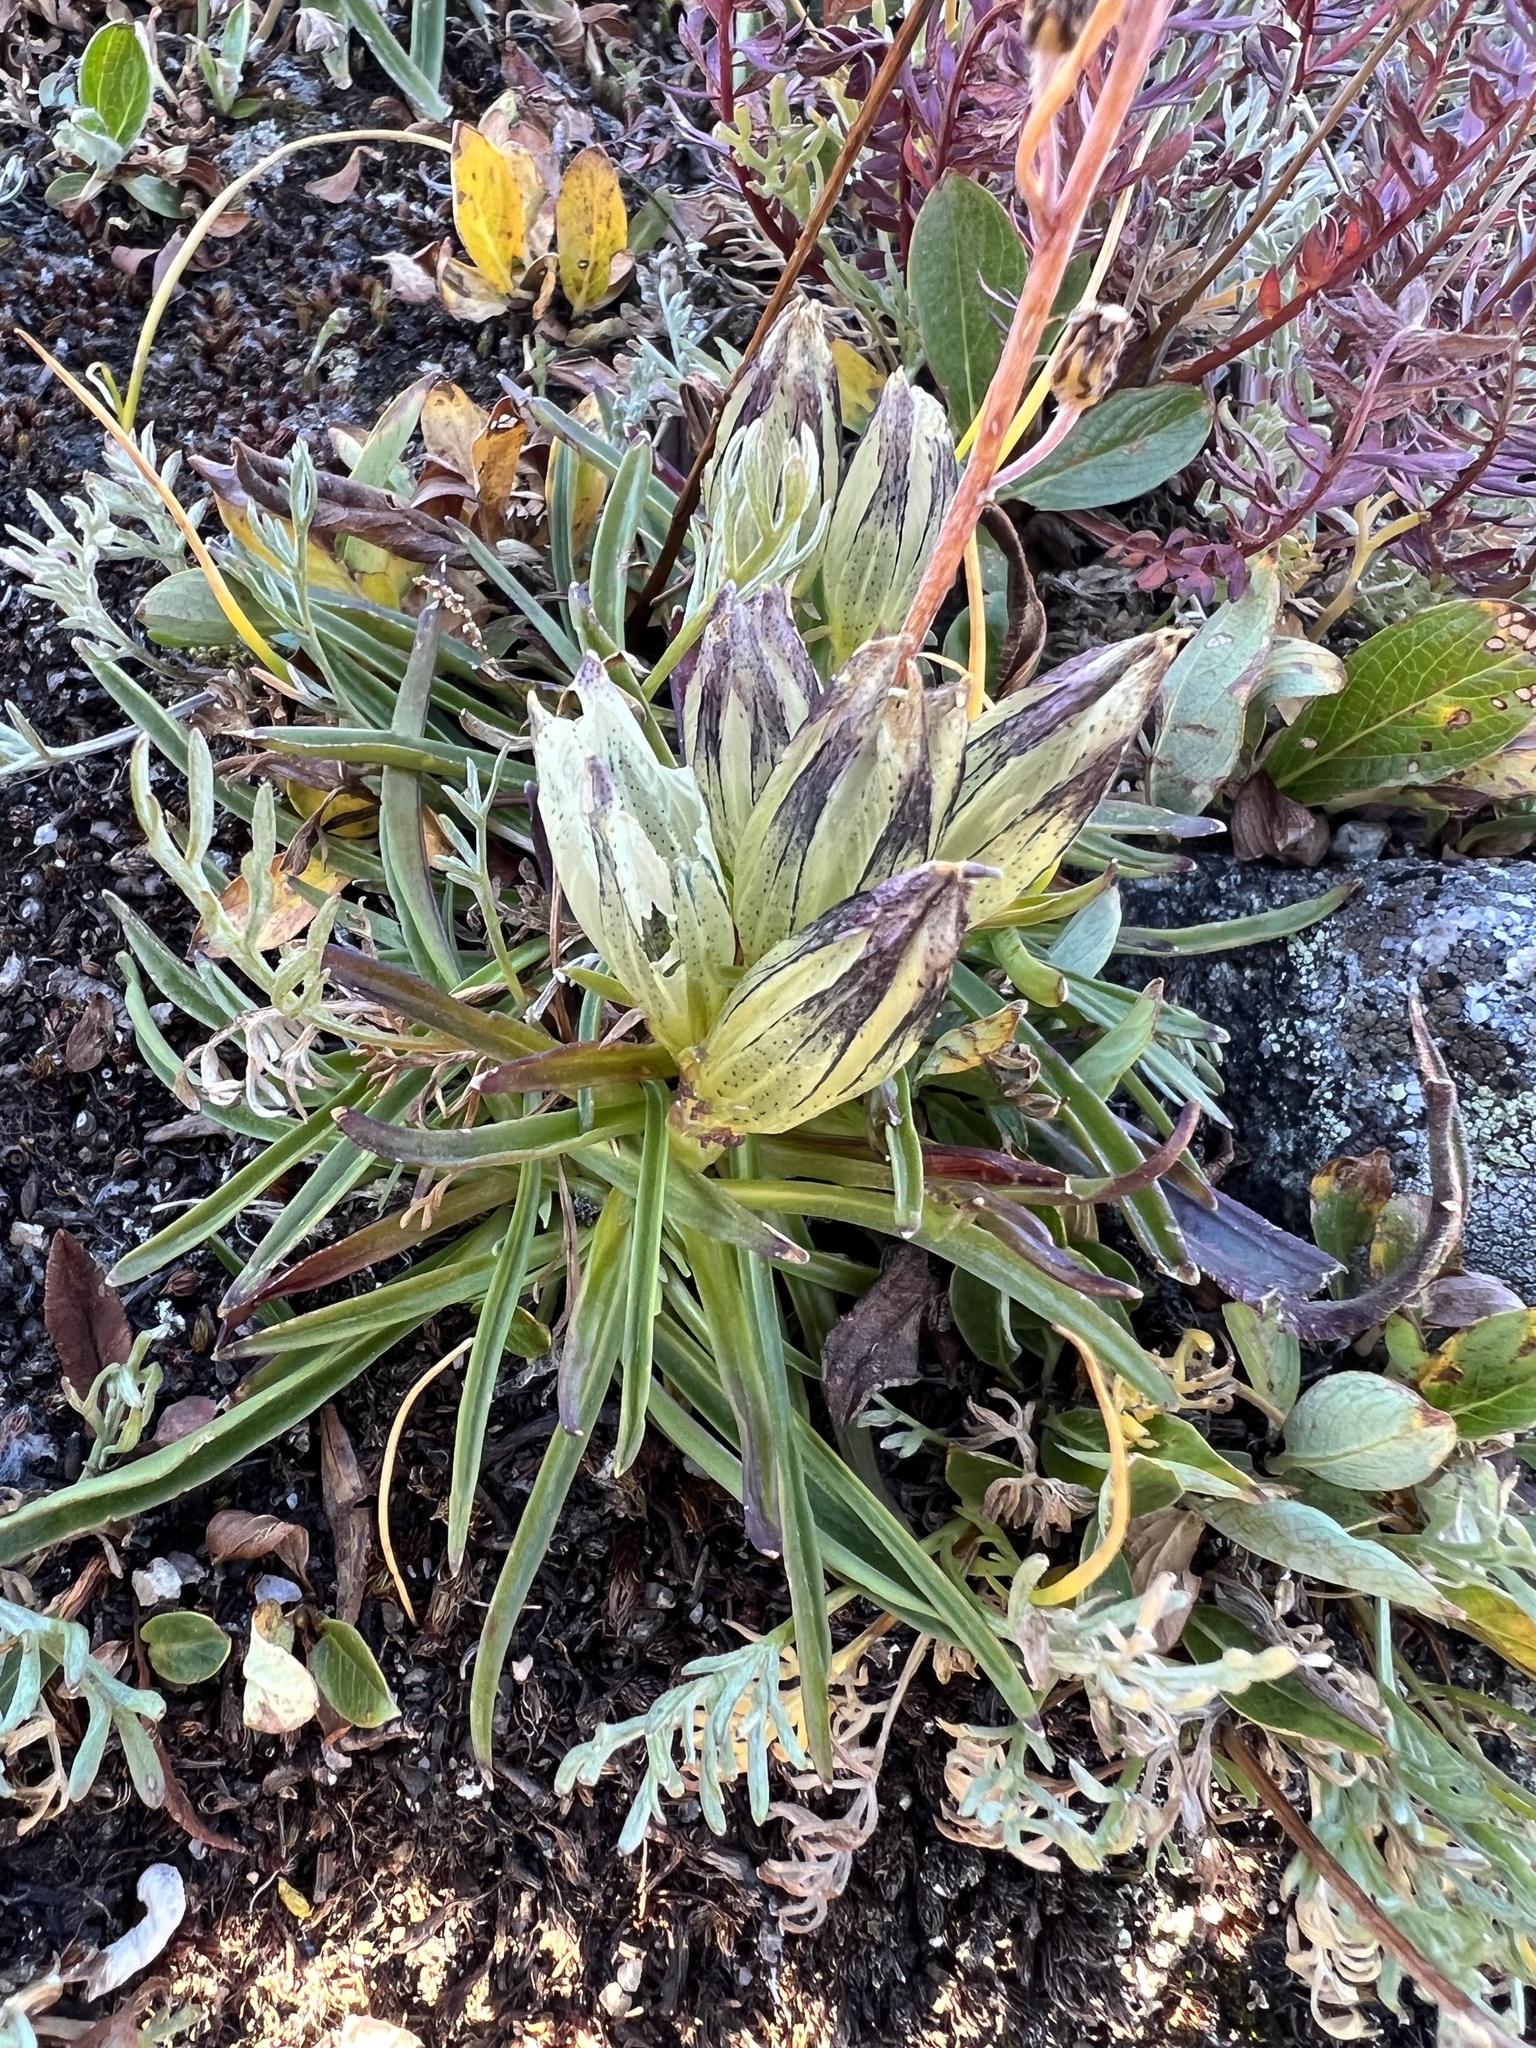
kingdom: Plantae
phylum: Tracheophyta
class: Magnoliopsida
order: Gentianales
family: Gentianaceae
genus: Gentiana
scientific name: Gentiana algida
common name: Arctic gentian
